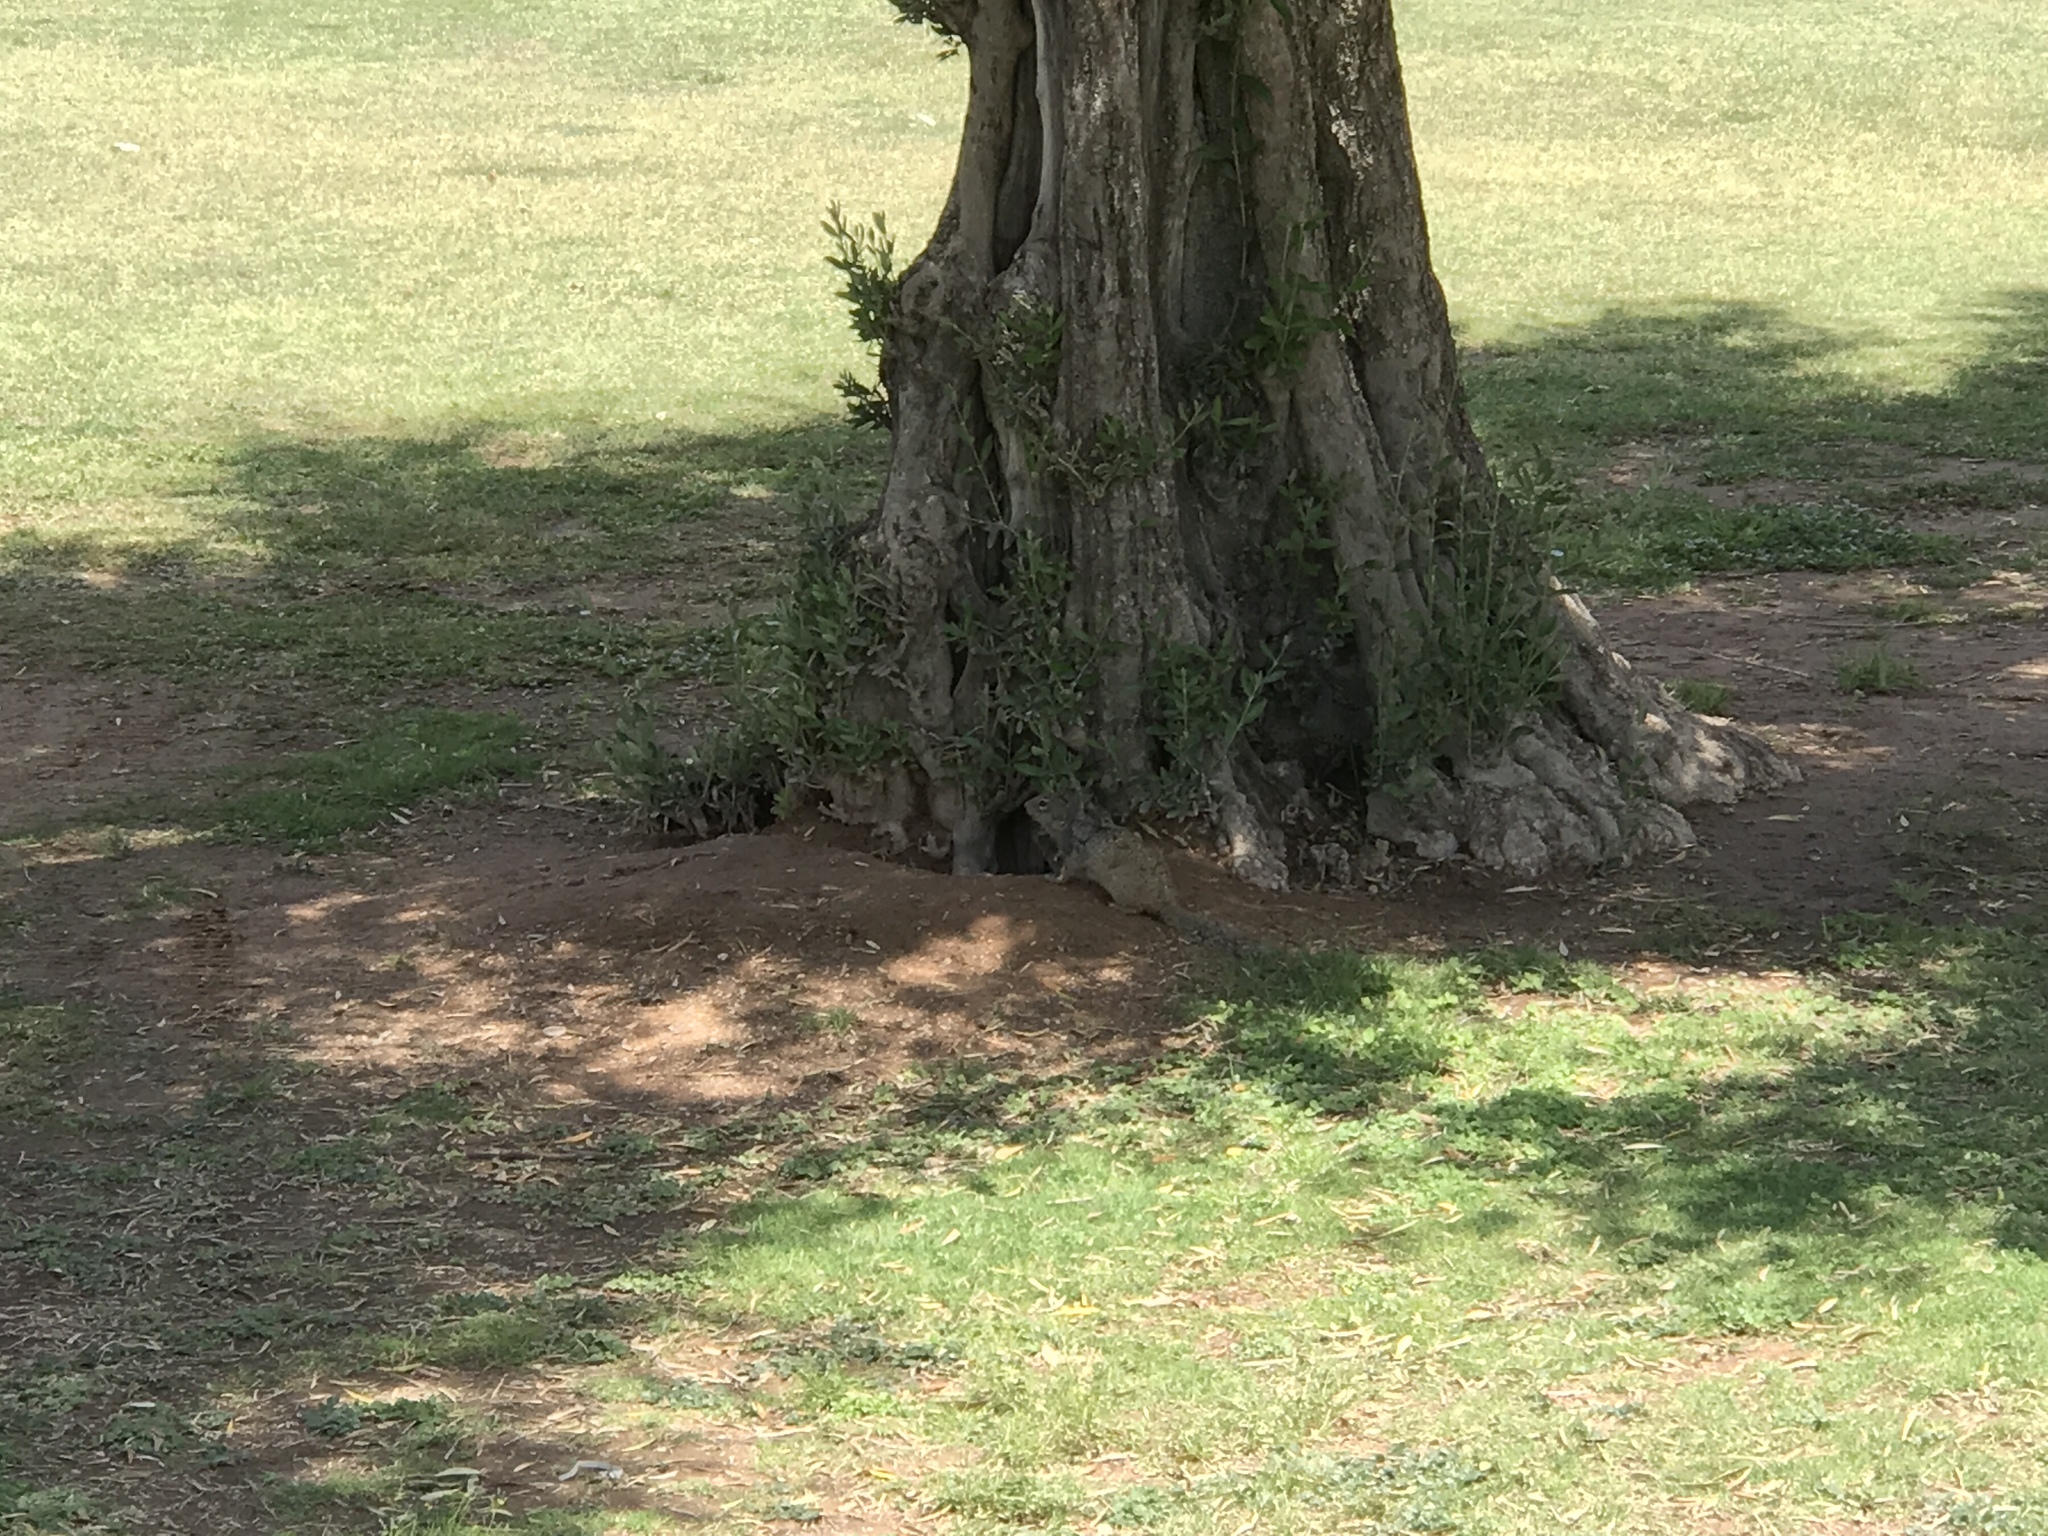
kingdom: Animalia
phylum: Chordata
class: Mammalia
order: Rodentia
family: Sciuridae
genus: Otospermophilus
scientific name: Otospermophilus variegatus
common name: Rock squirrel
